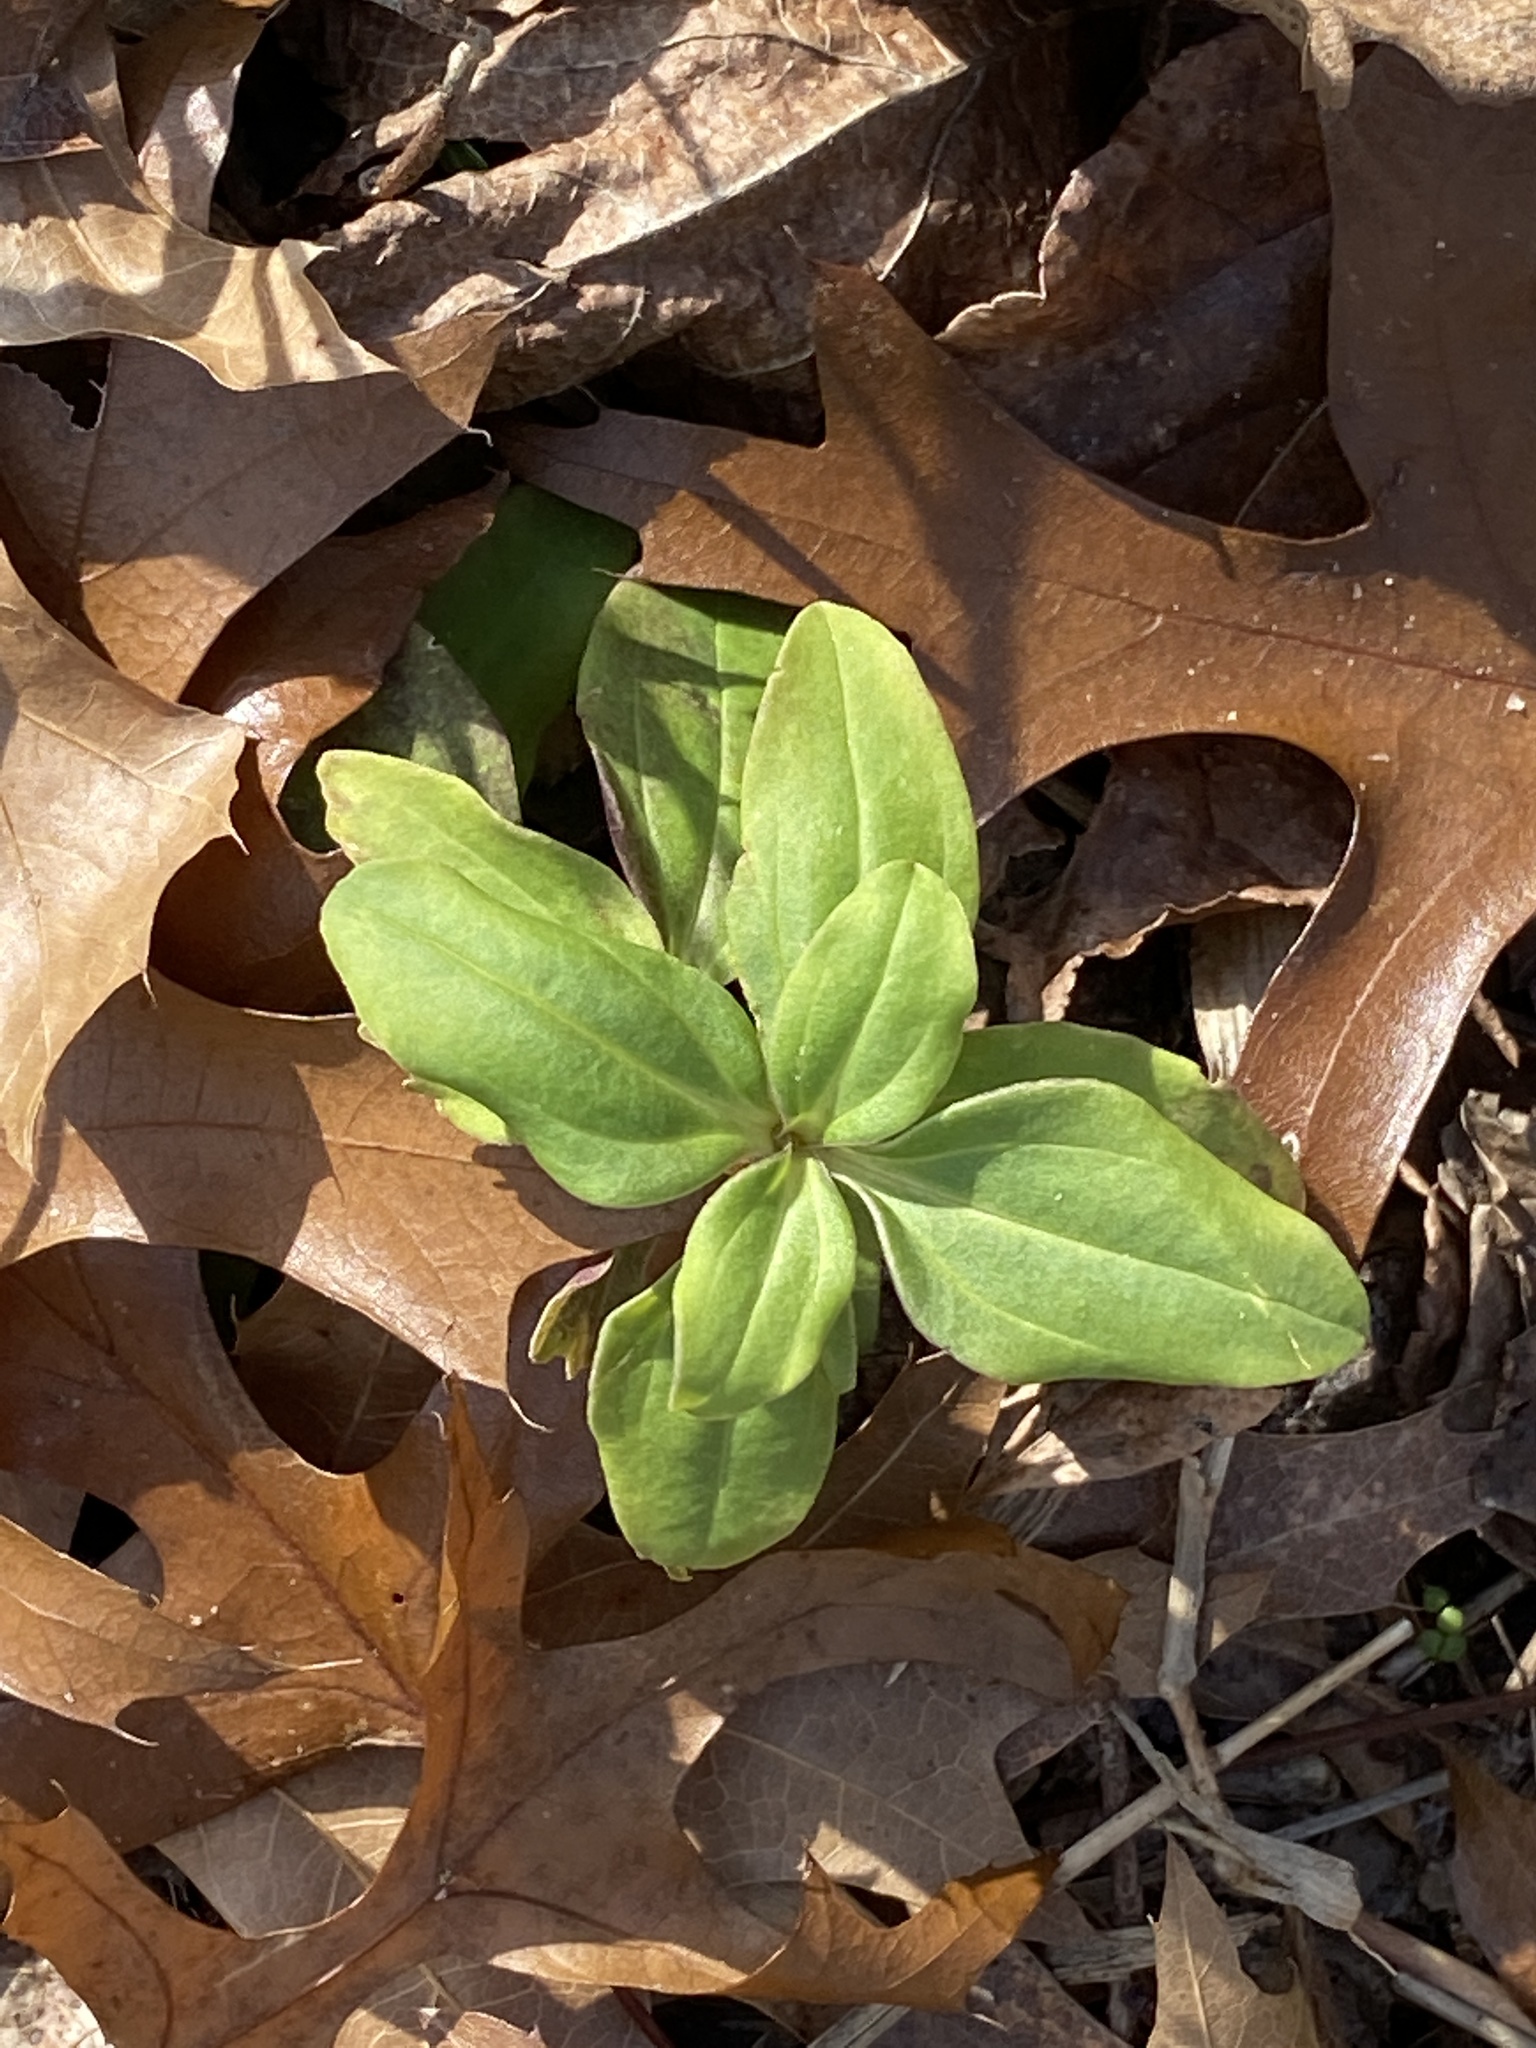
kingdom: Plantae
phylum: Tracheophyta
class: Magnoliopsida
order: Caryophyllales
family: Caryophyllaceae
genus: Saponaria
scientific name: Saponaria officinalis
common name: Soapwort
